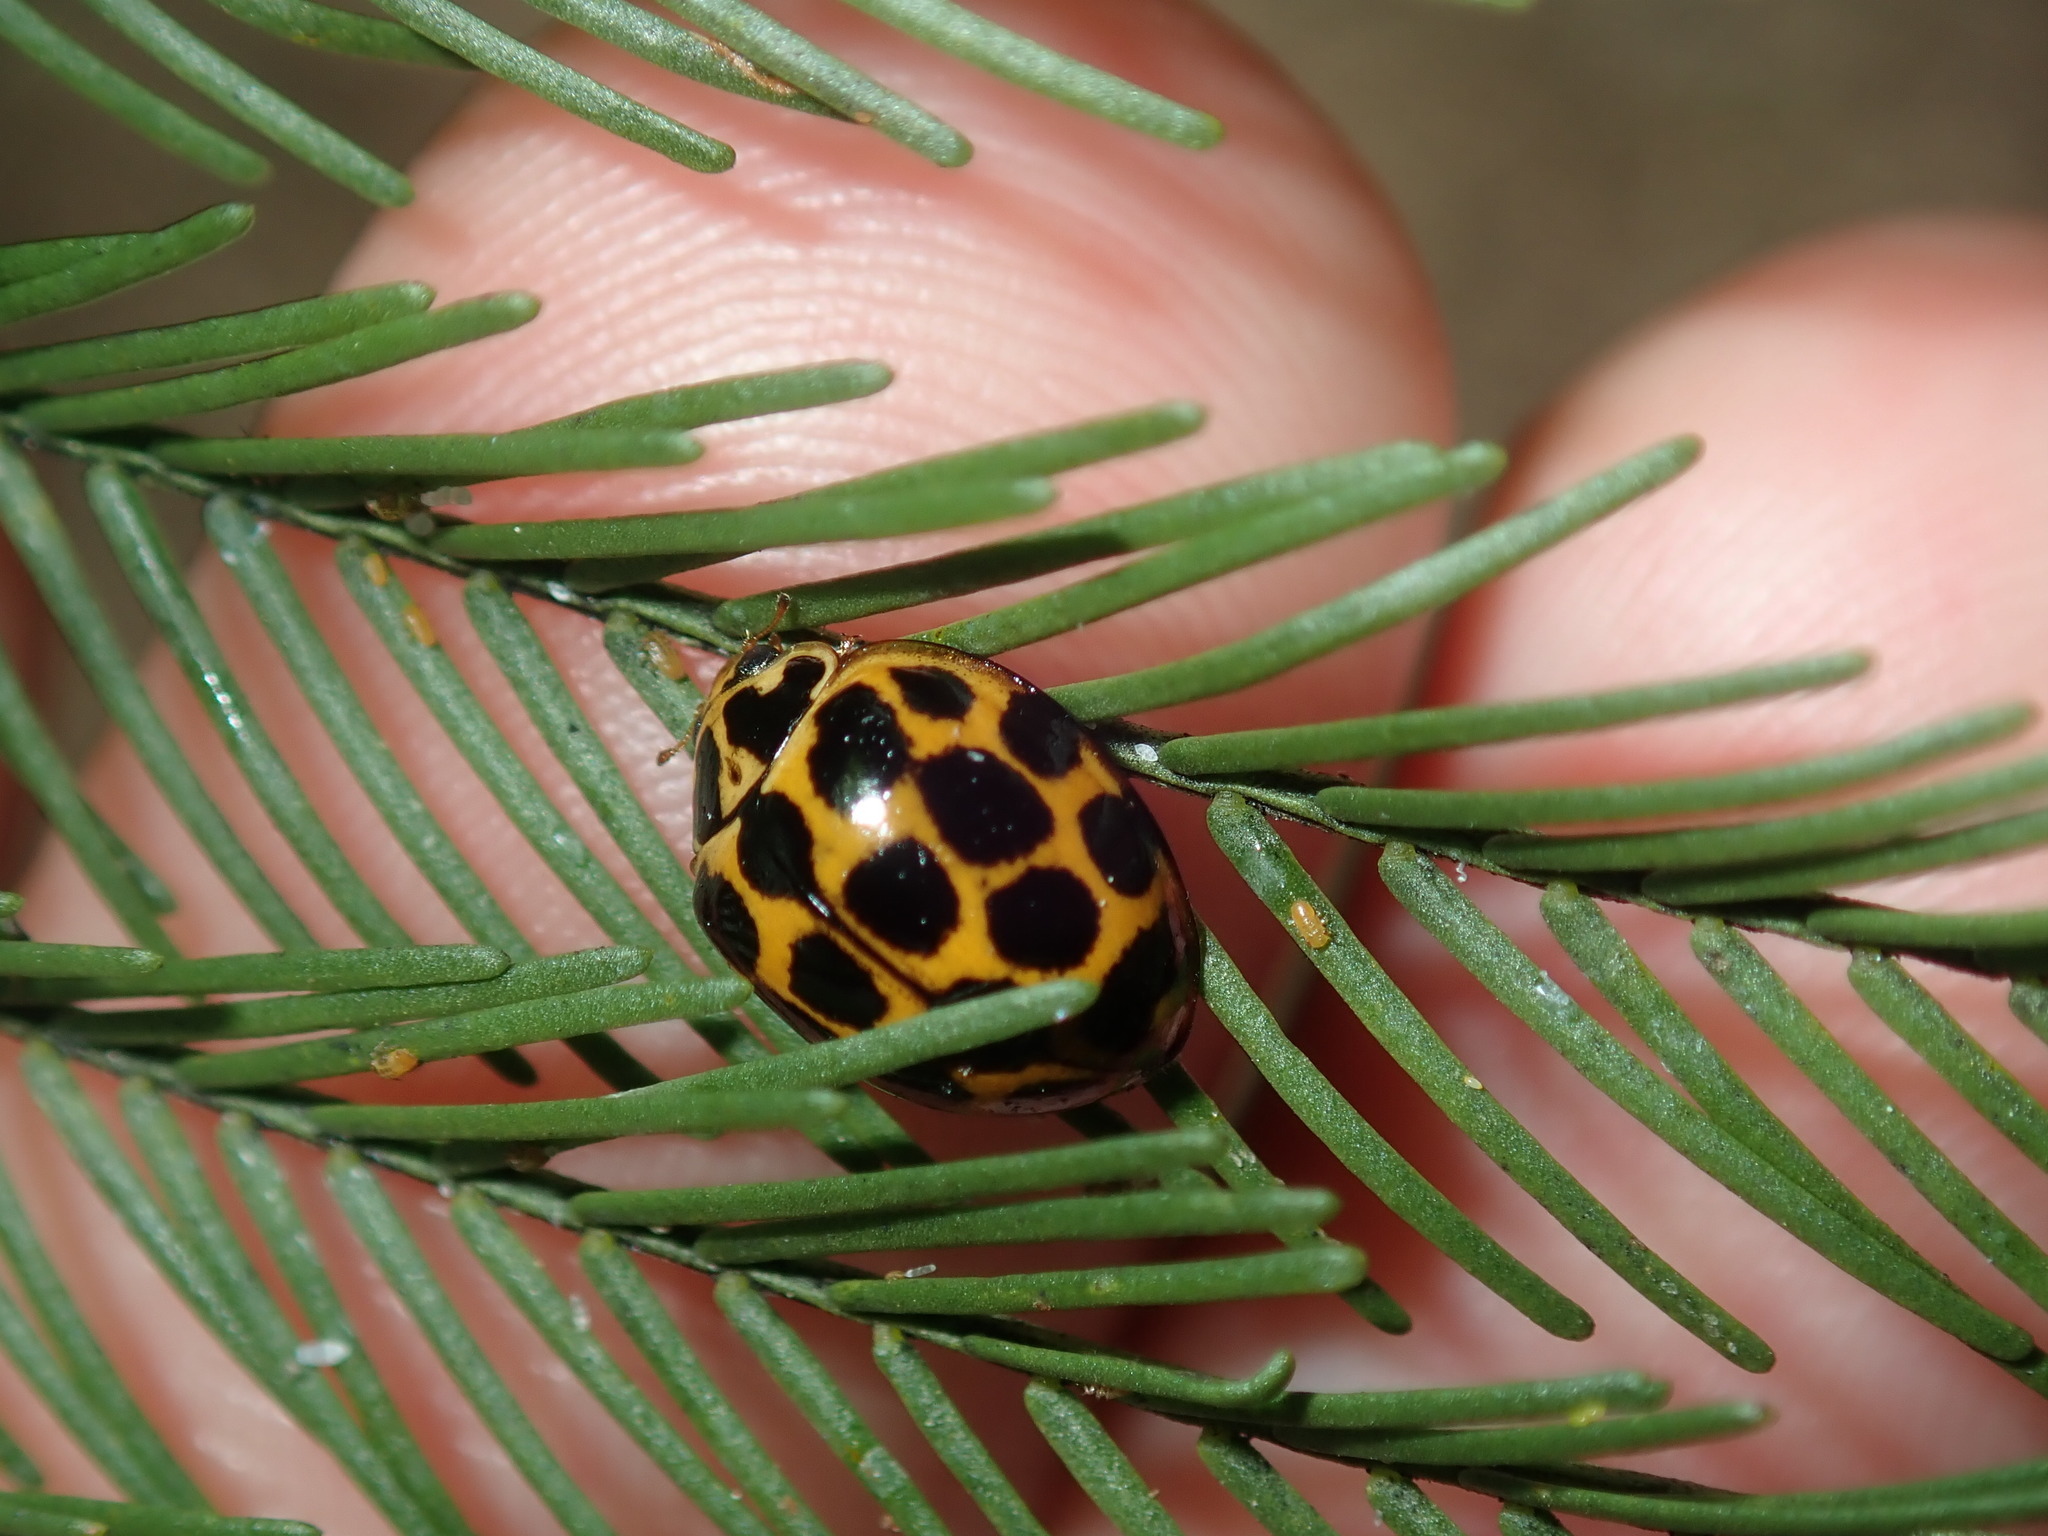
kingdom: Animalia
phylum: Arthropoda
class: Insecta
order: Coleoptera
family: Coccinellidae
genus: Harmonia
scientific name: Harmonia conformis
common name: Common spotted ladybird beetle
